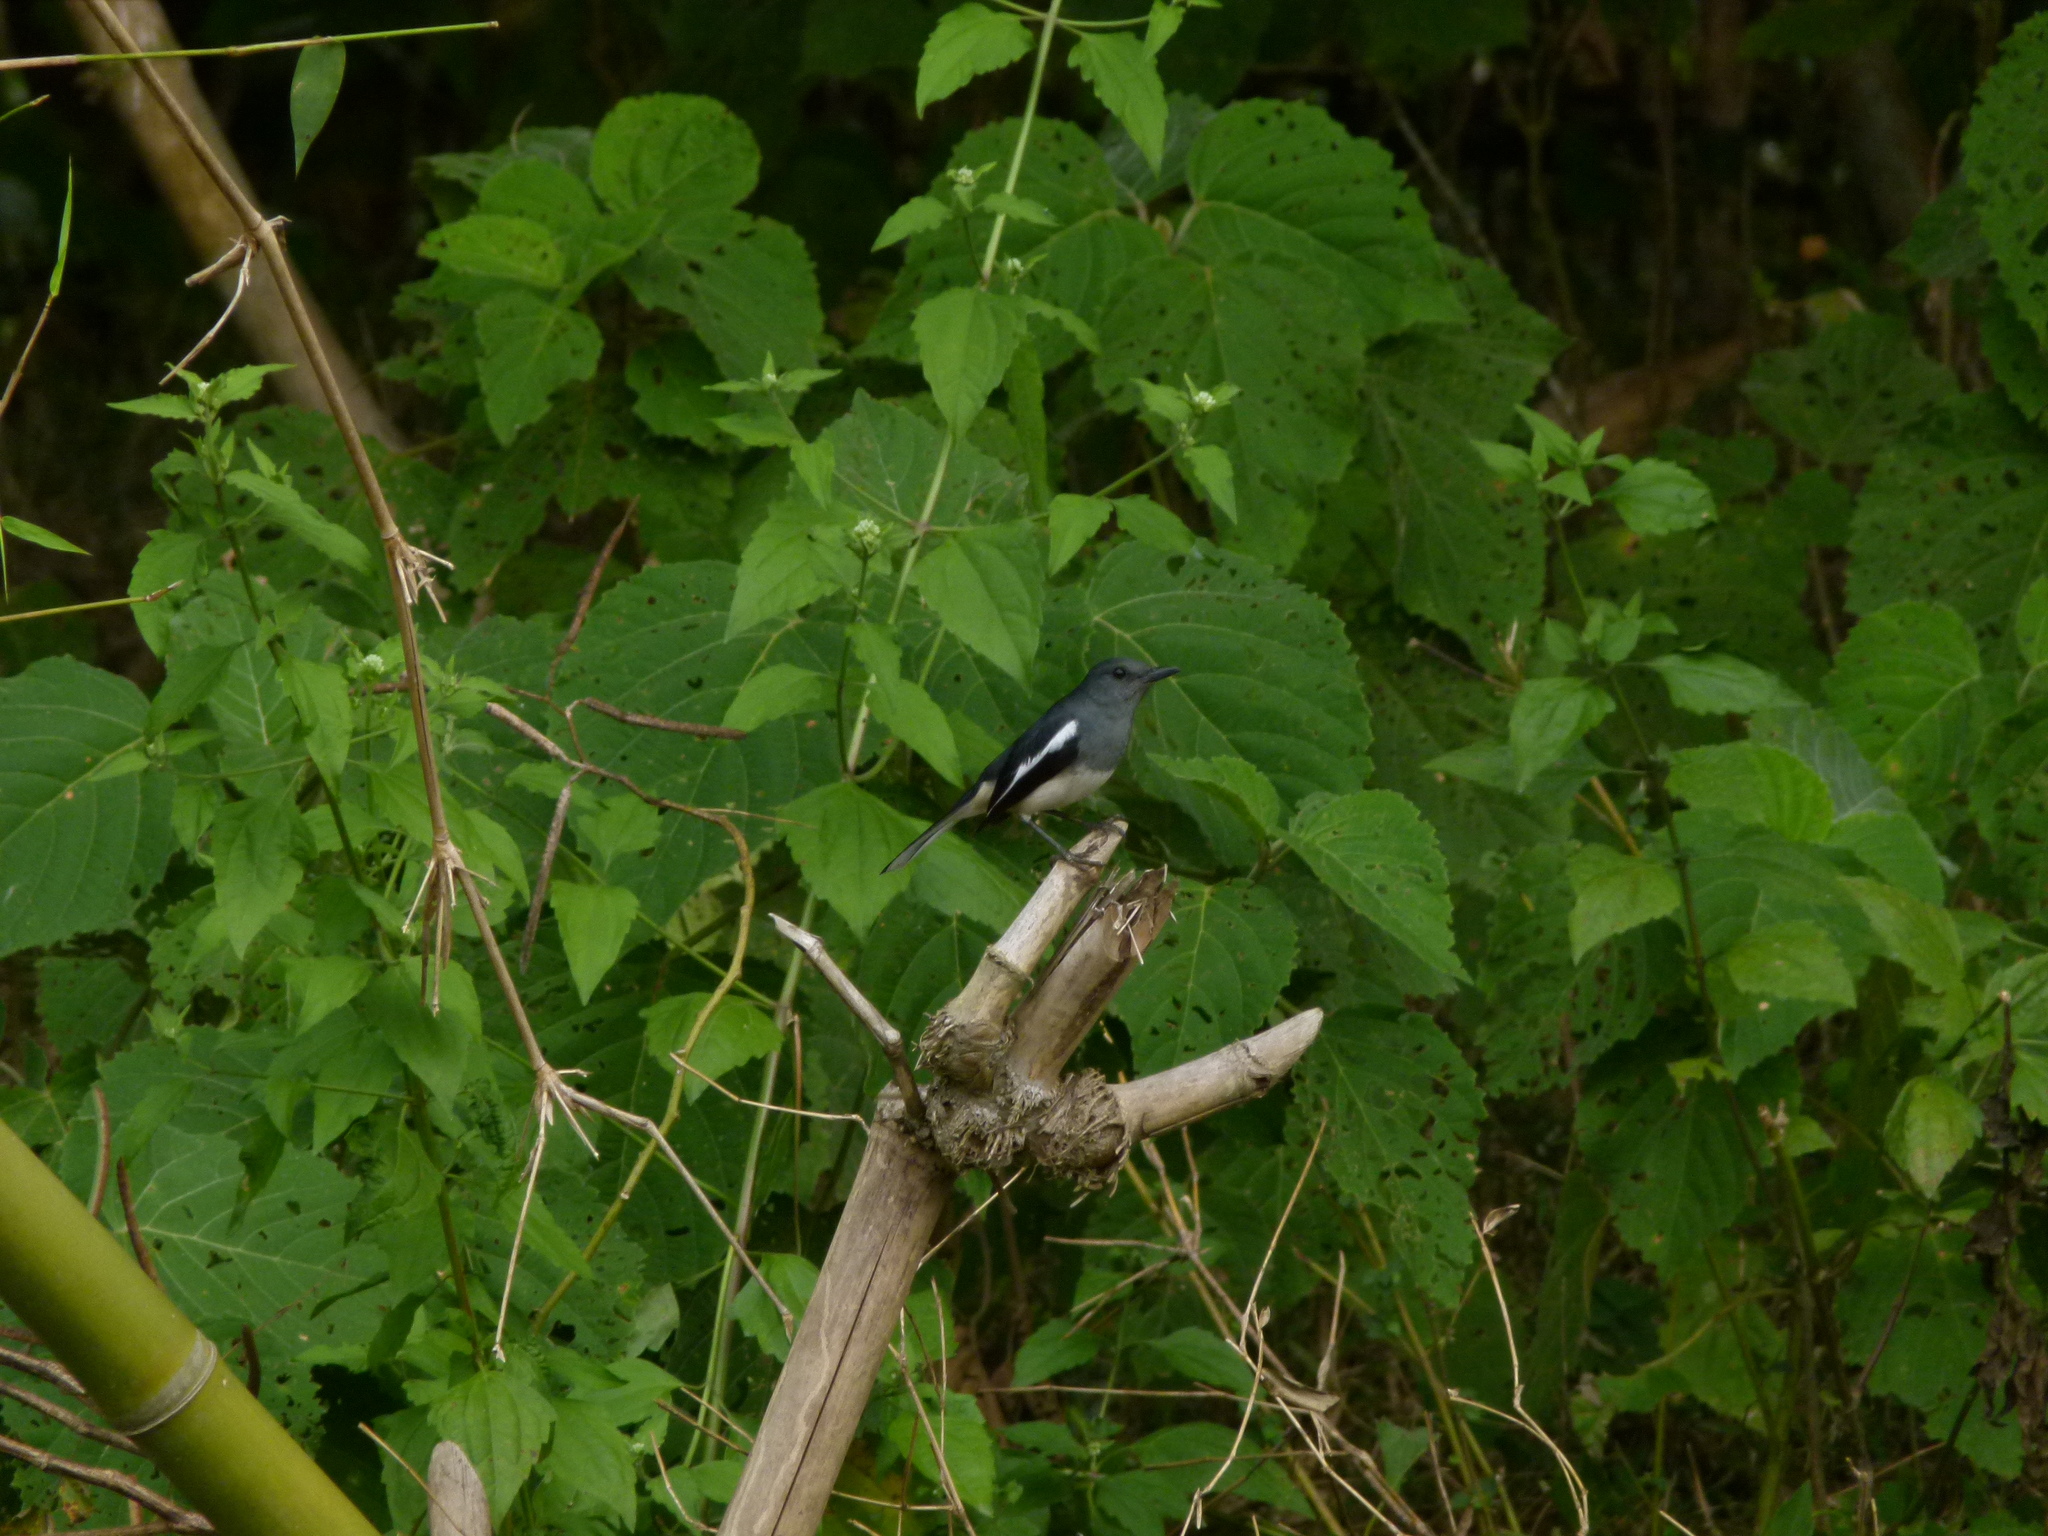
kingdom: Animalia
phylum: Chordata
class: Aves
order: Passeriformes
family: Muscicapidae
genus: Copsychus
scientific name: Copsychus saularis
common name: Oriental magpie-robin
